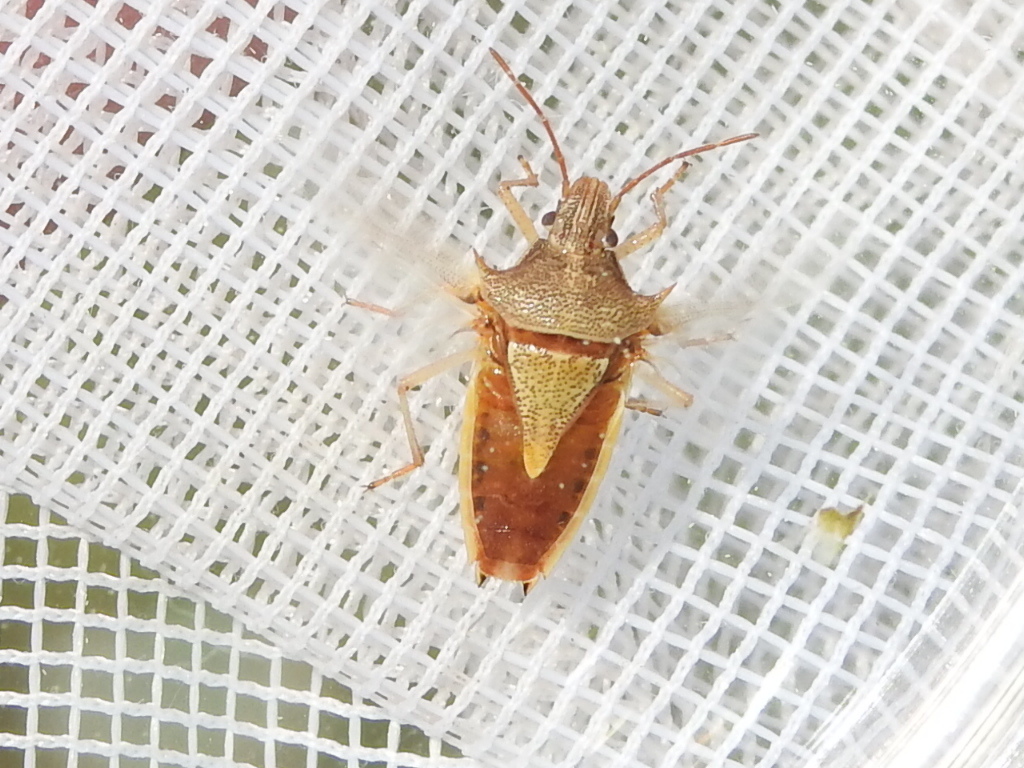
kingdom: Animalia
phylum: Arthropoda
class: Insecta
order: Hemiptera
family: Pentatomidae
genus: Oebalus
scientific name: Oebalus pugnax
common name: Rice stink bug
